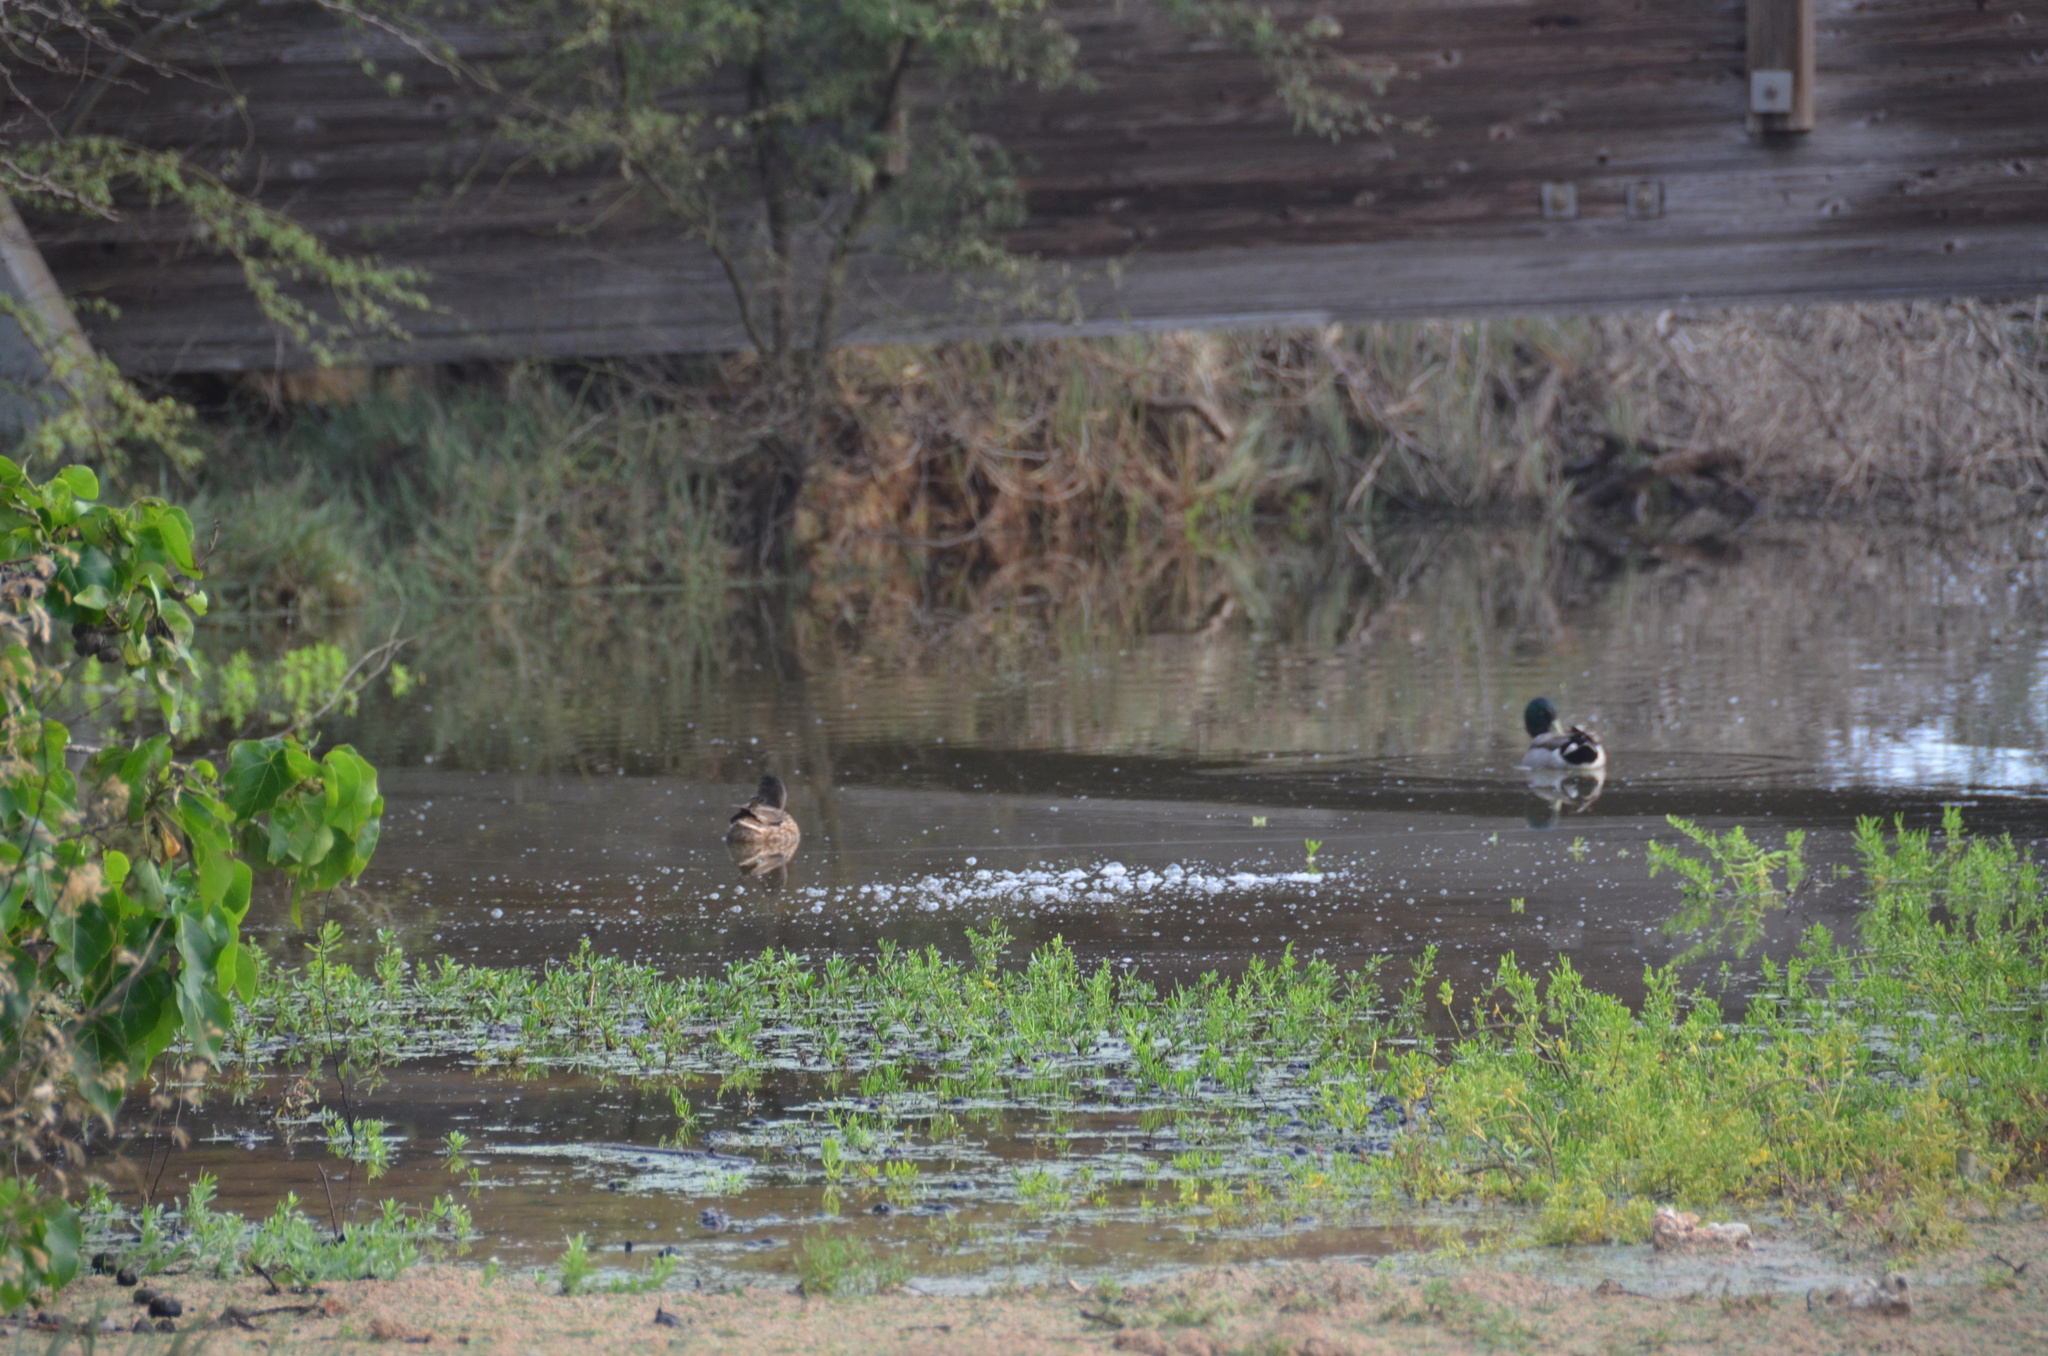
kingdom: Animalia
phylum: Chordata
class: Aves
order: Anseriformes
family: Anatidae
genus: Anas
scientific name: Anas platyrhynchos
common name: Mallard
